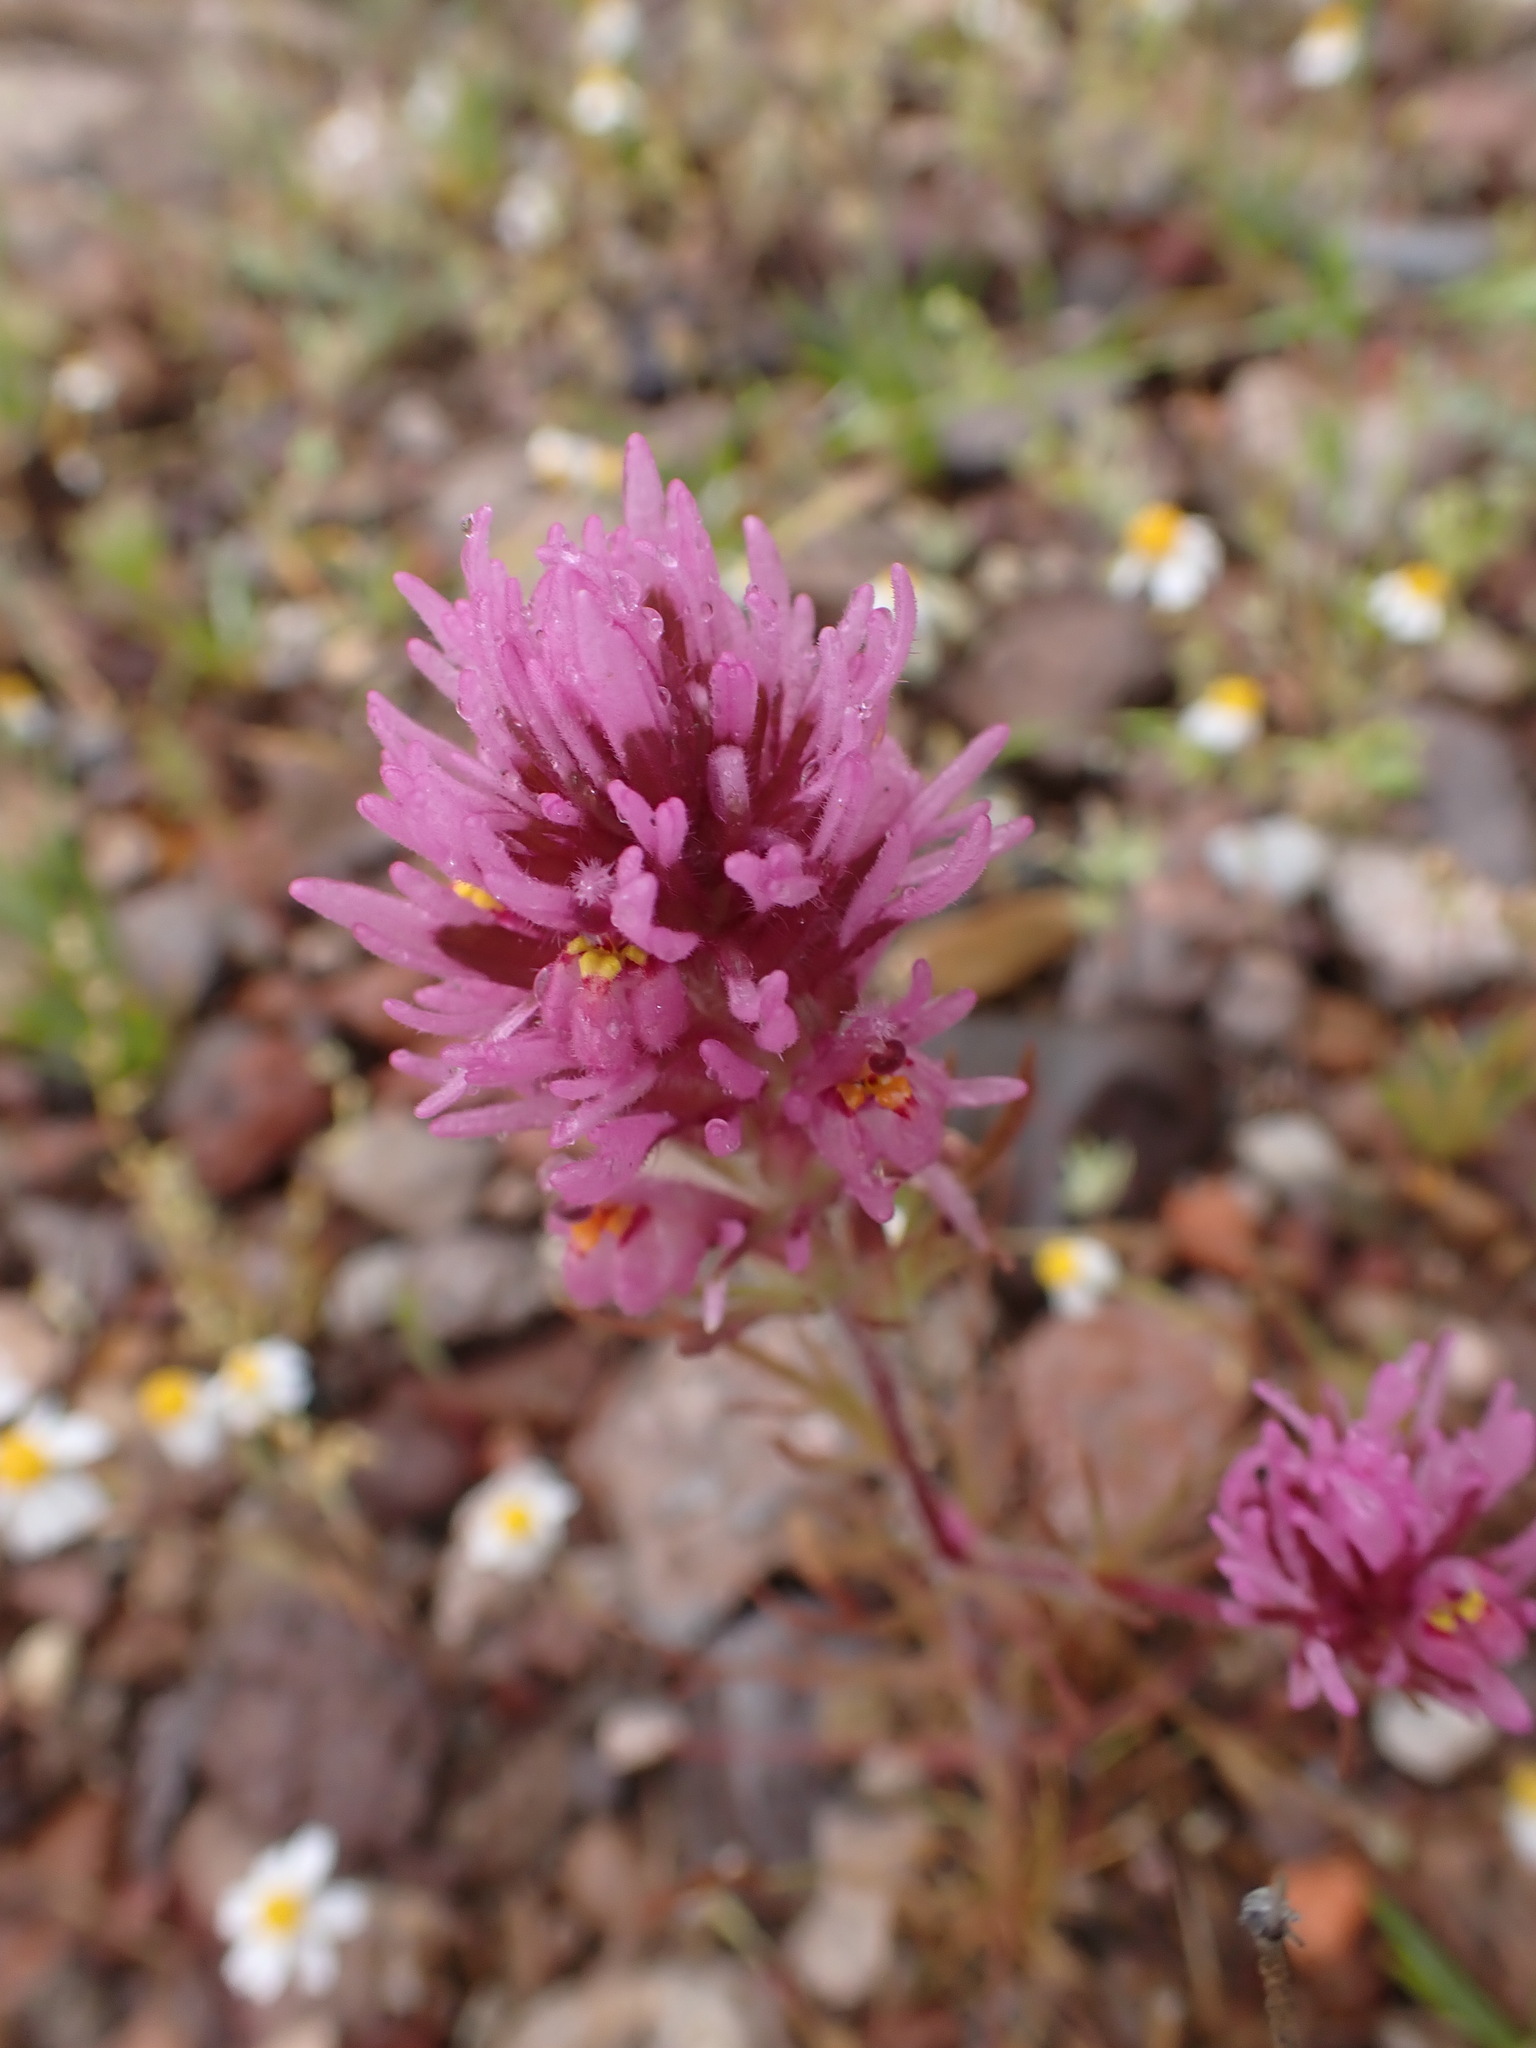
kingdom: Plantae
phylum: Tracheophyta
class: Magnoliopsida
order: Lamiales
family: Orobanchaceae
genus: Castilleja
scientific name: Castilleja exserta
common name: Purple owl-clover
